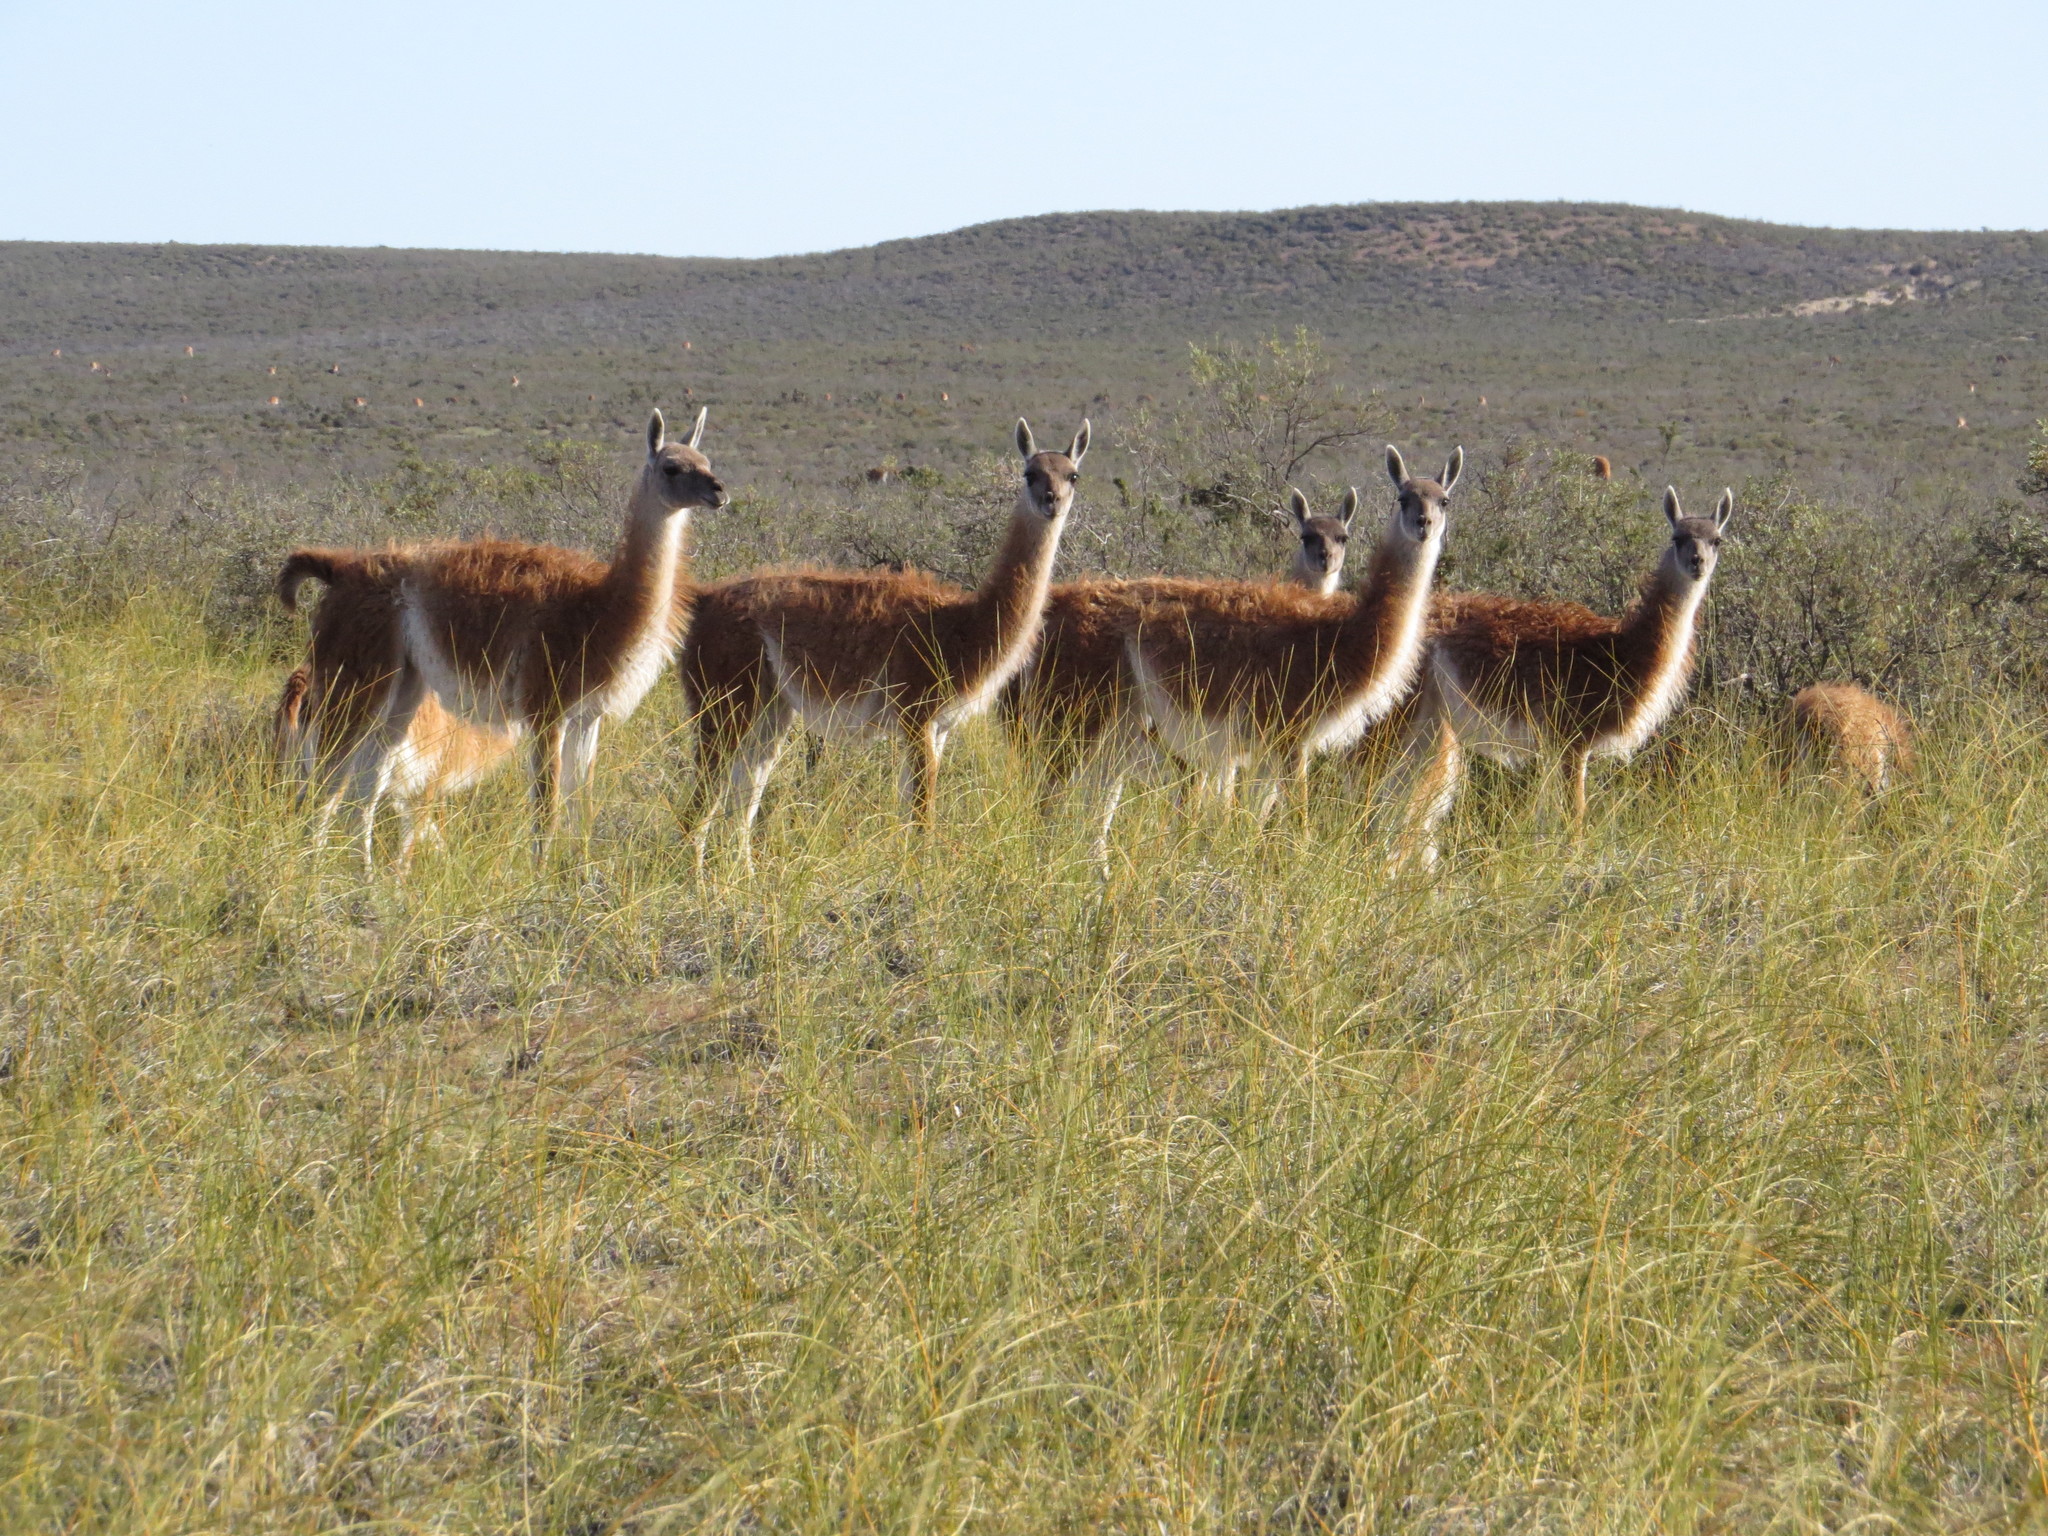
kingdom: Animalia
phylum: Chordata
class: Mammalia
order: Artiodactyla
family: Camelidae
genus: Lama
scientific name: Lama glama
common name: Llama
